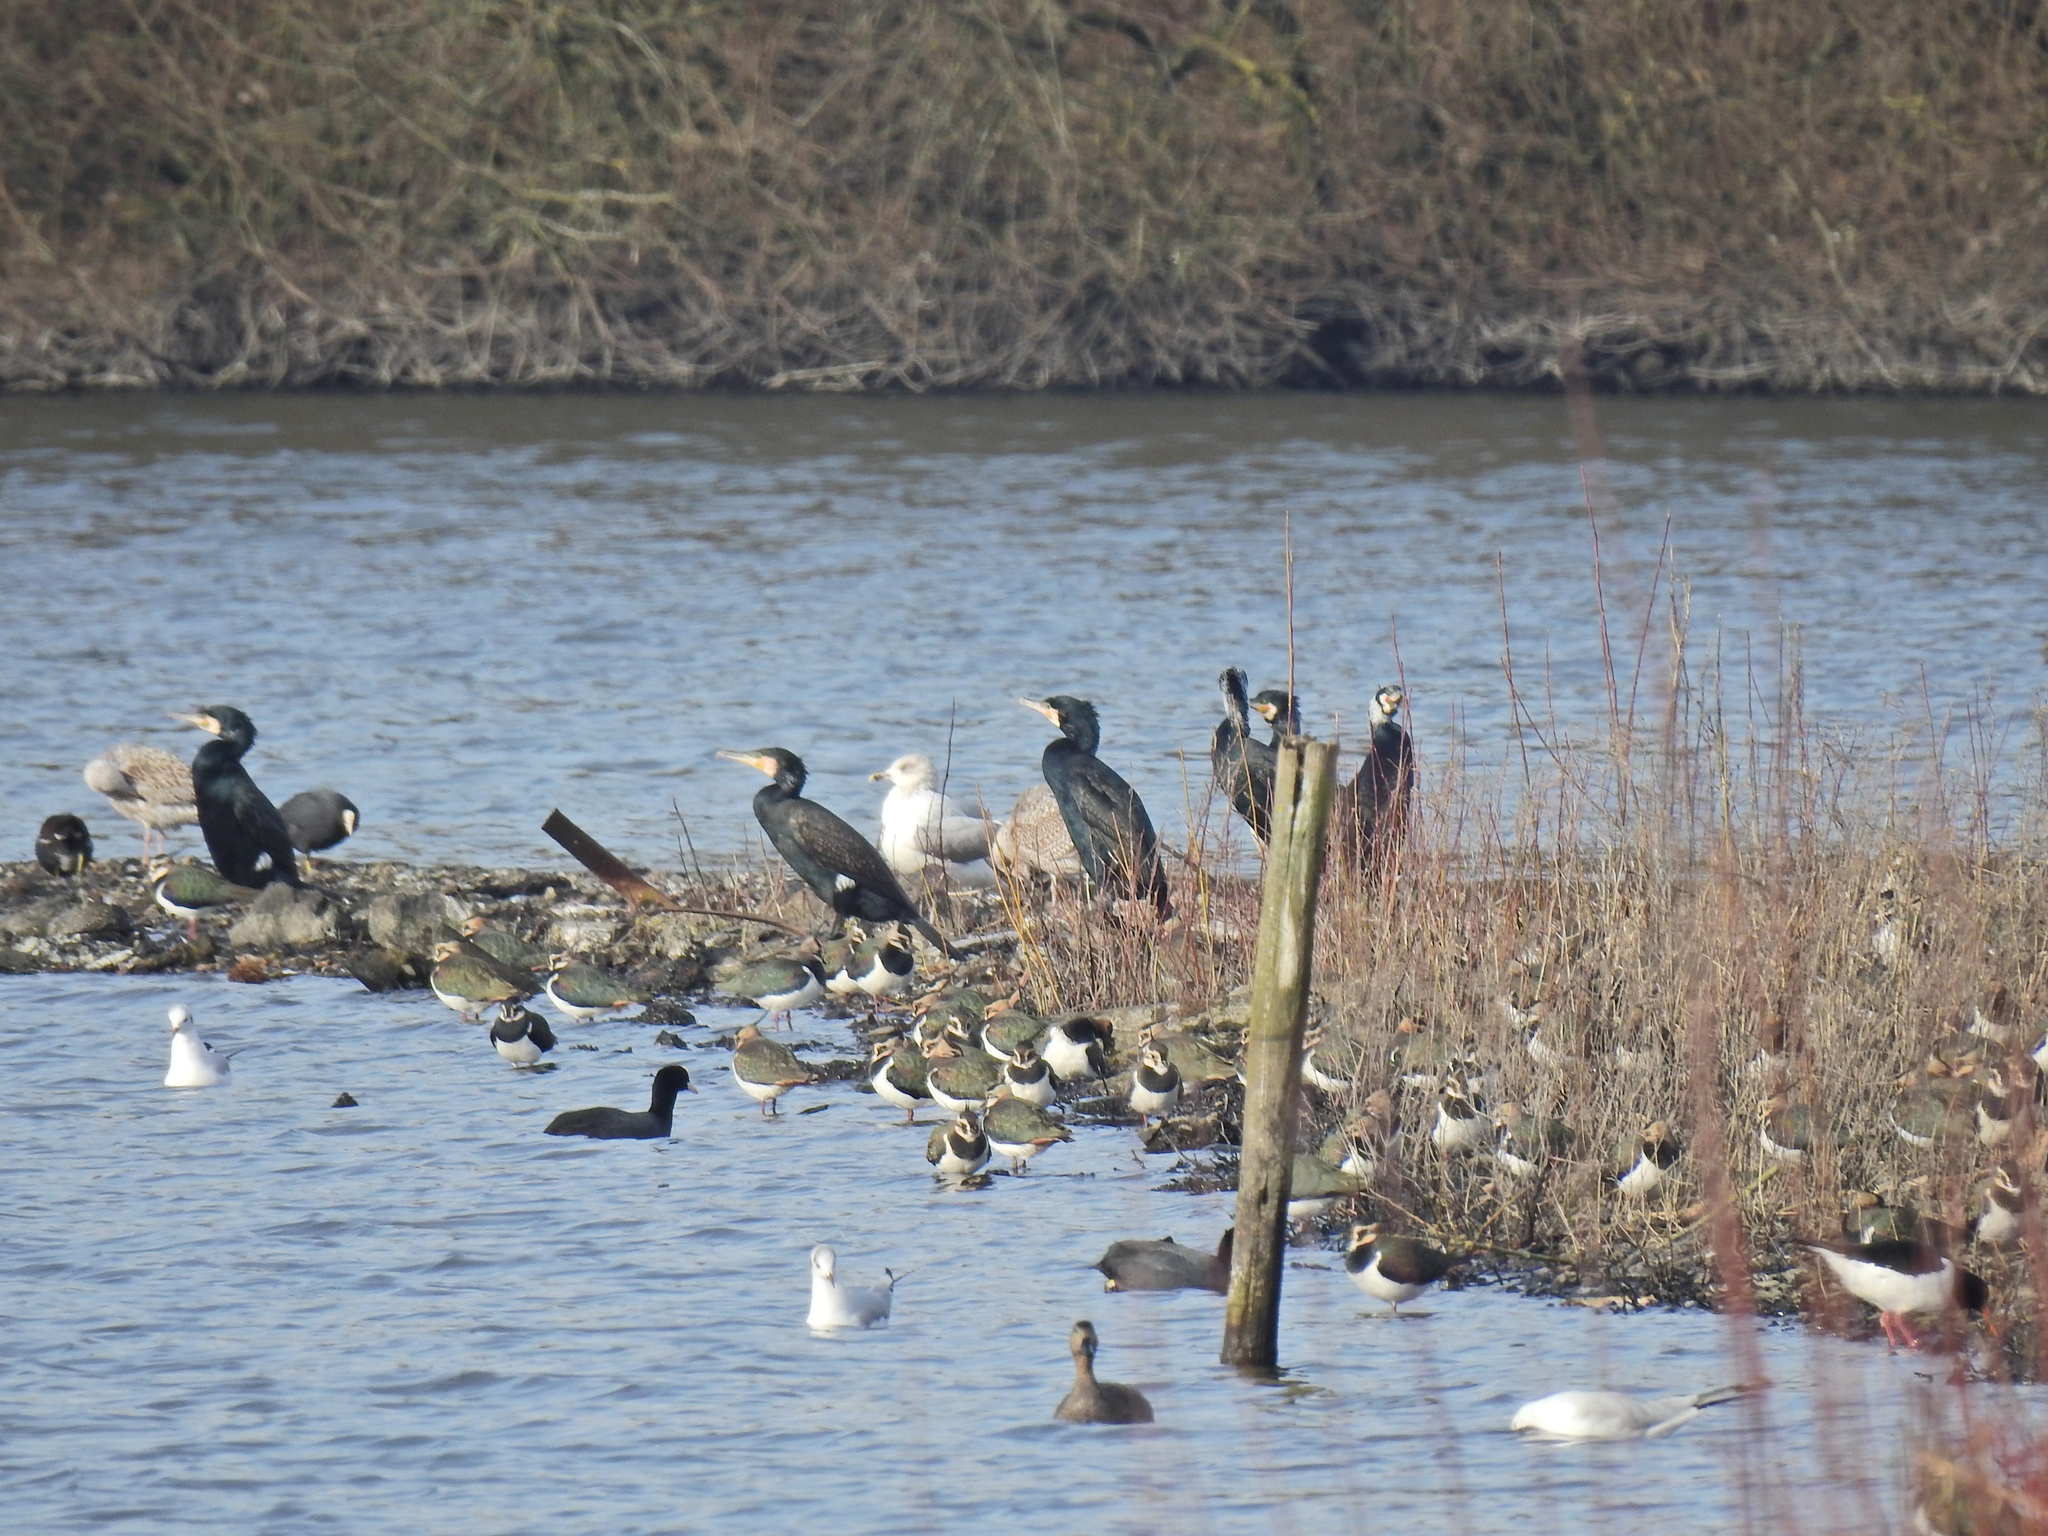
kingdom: Animalia
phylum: Chordata
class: Aves
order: Suliformes
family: Phalacrocoracidae
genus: Phalacrocorax
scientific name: Phalacrocorax carbo
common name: Great cormorant
